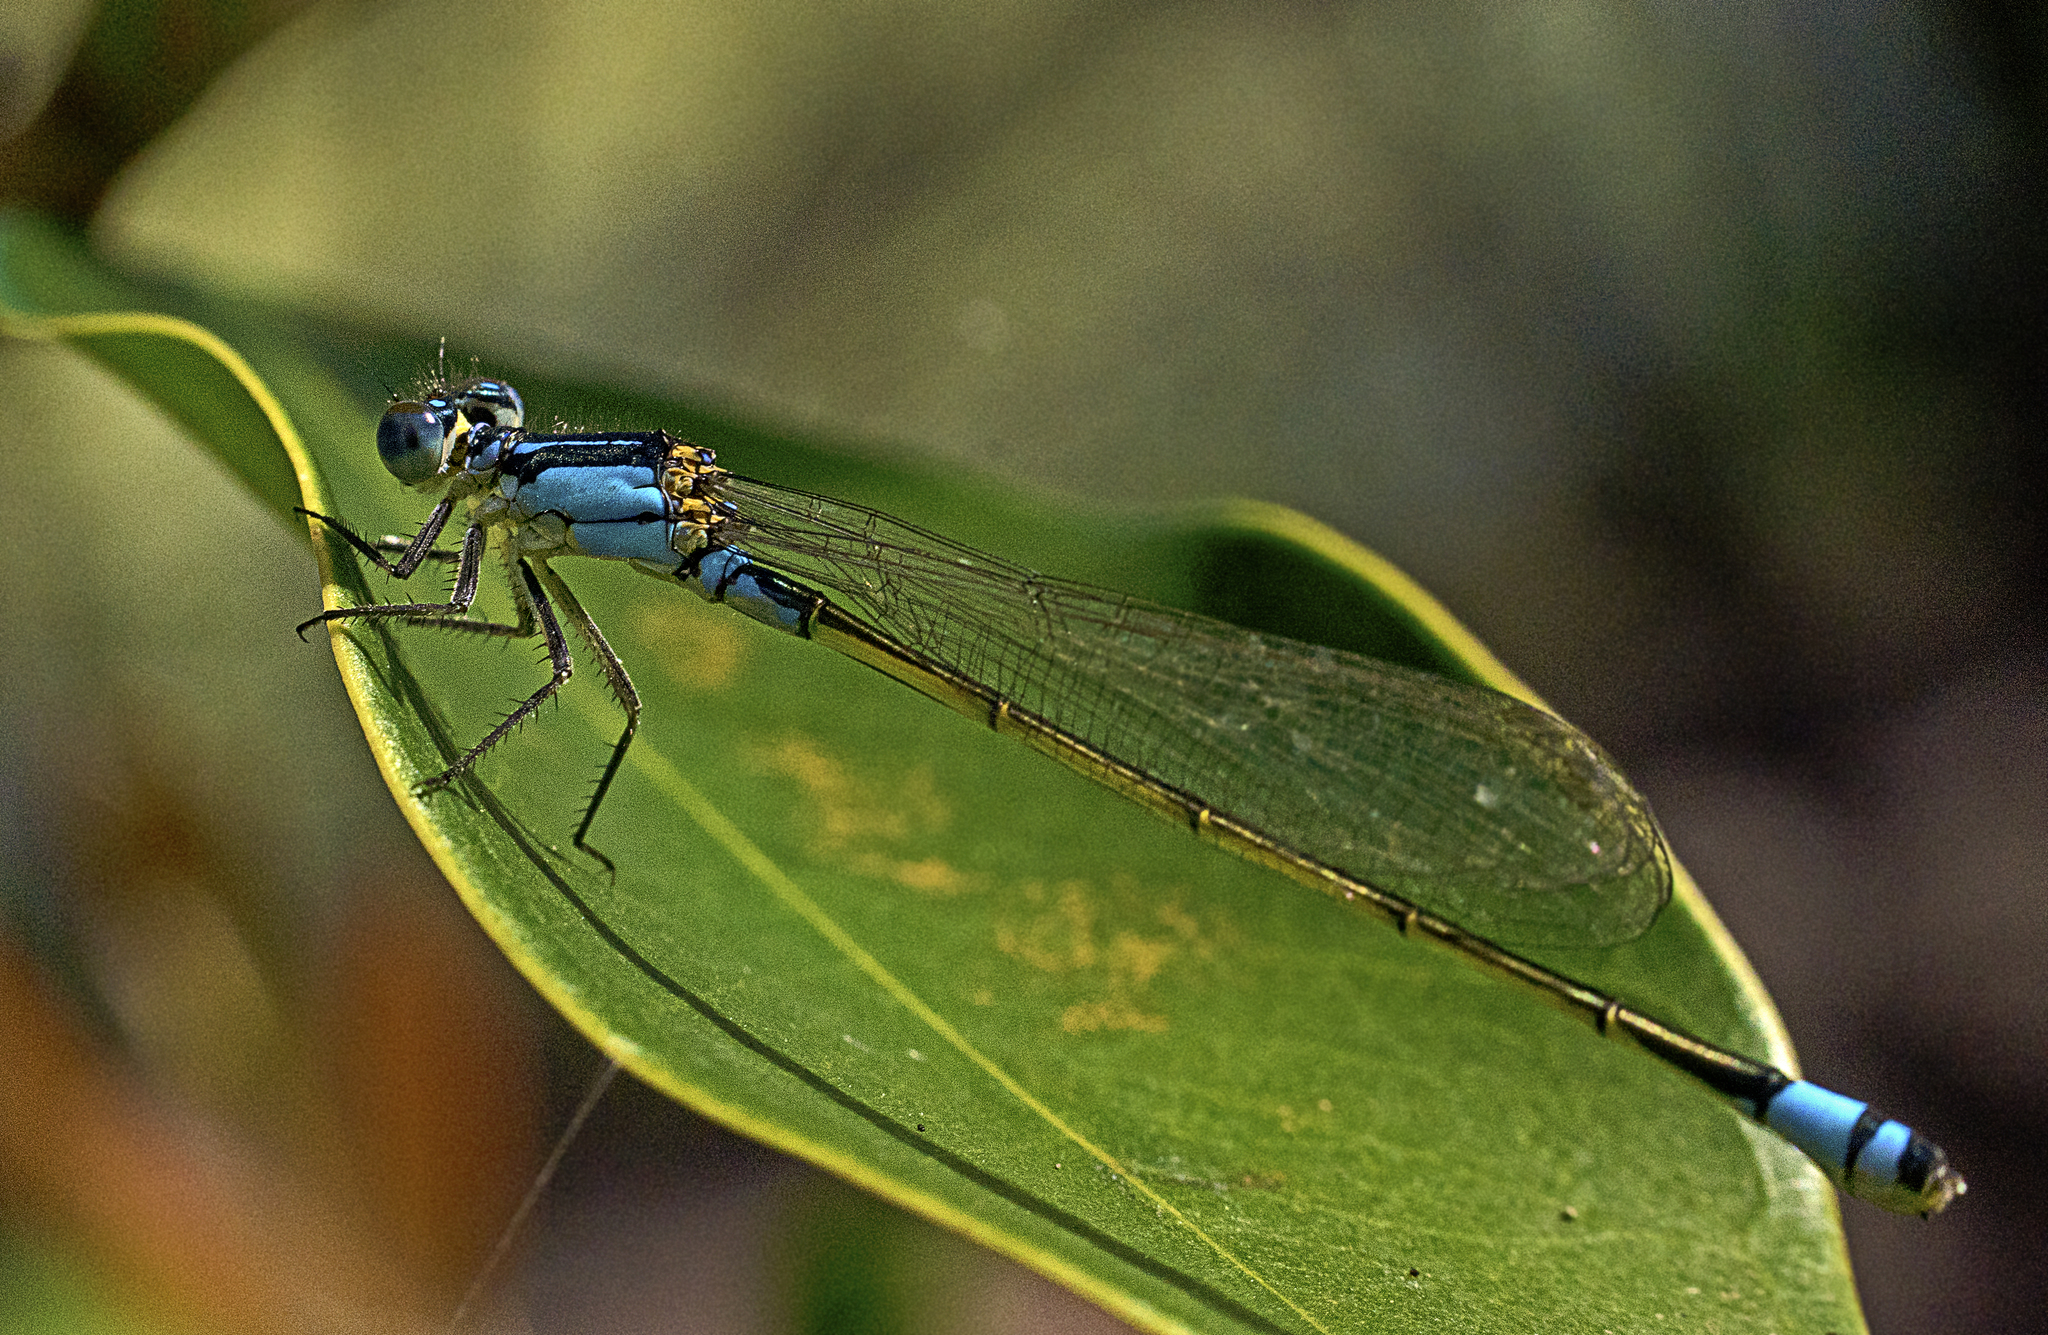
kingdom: Animalia
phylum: Arthropoda
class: Insecta
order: Odonata
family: Coenagrionidae
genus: Ischnura
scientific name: Ischnura heterosticta
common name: Common bluetail
